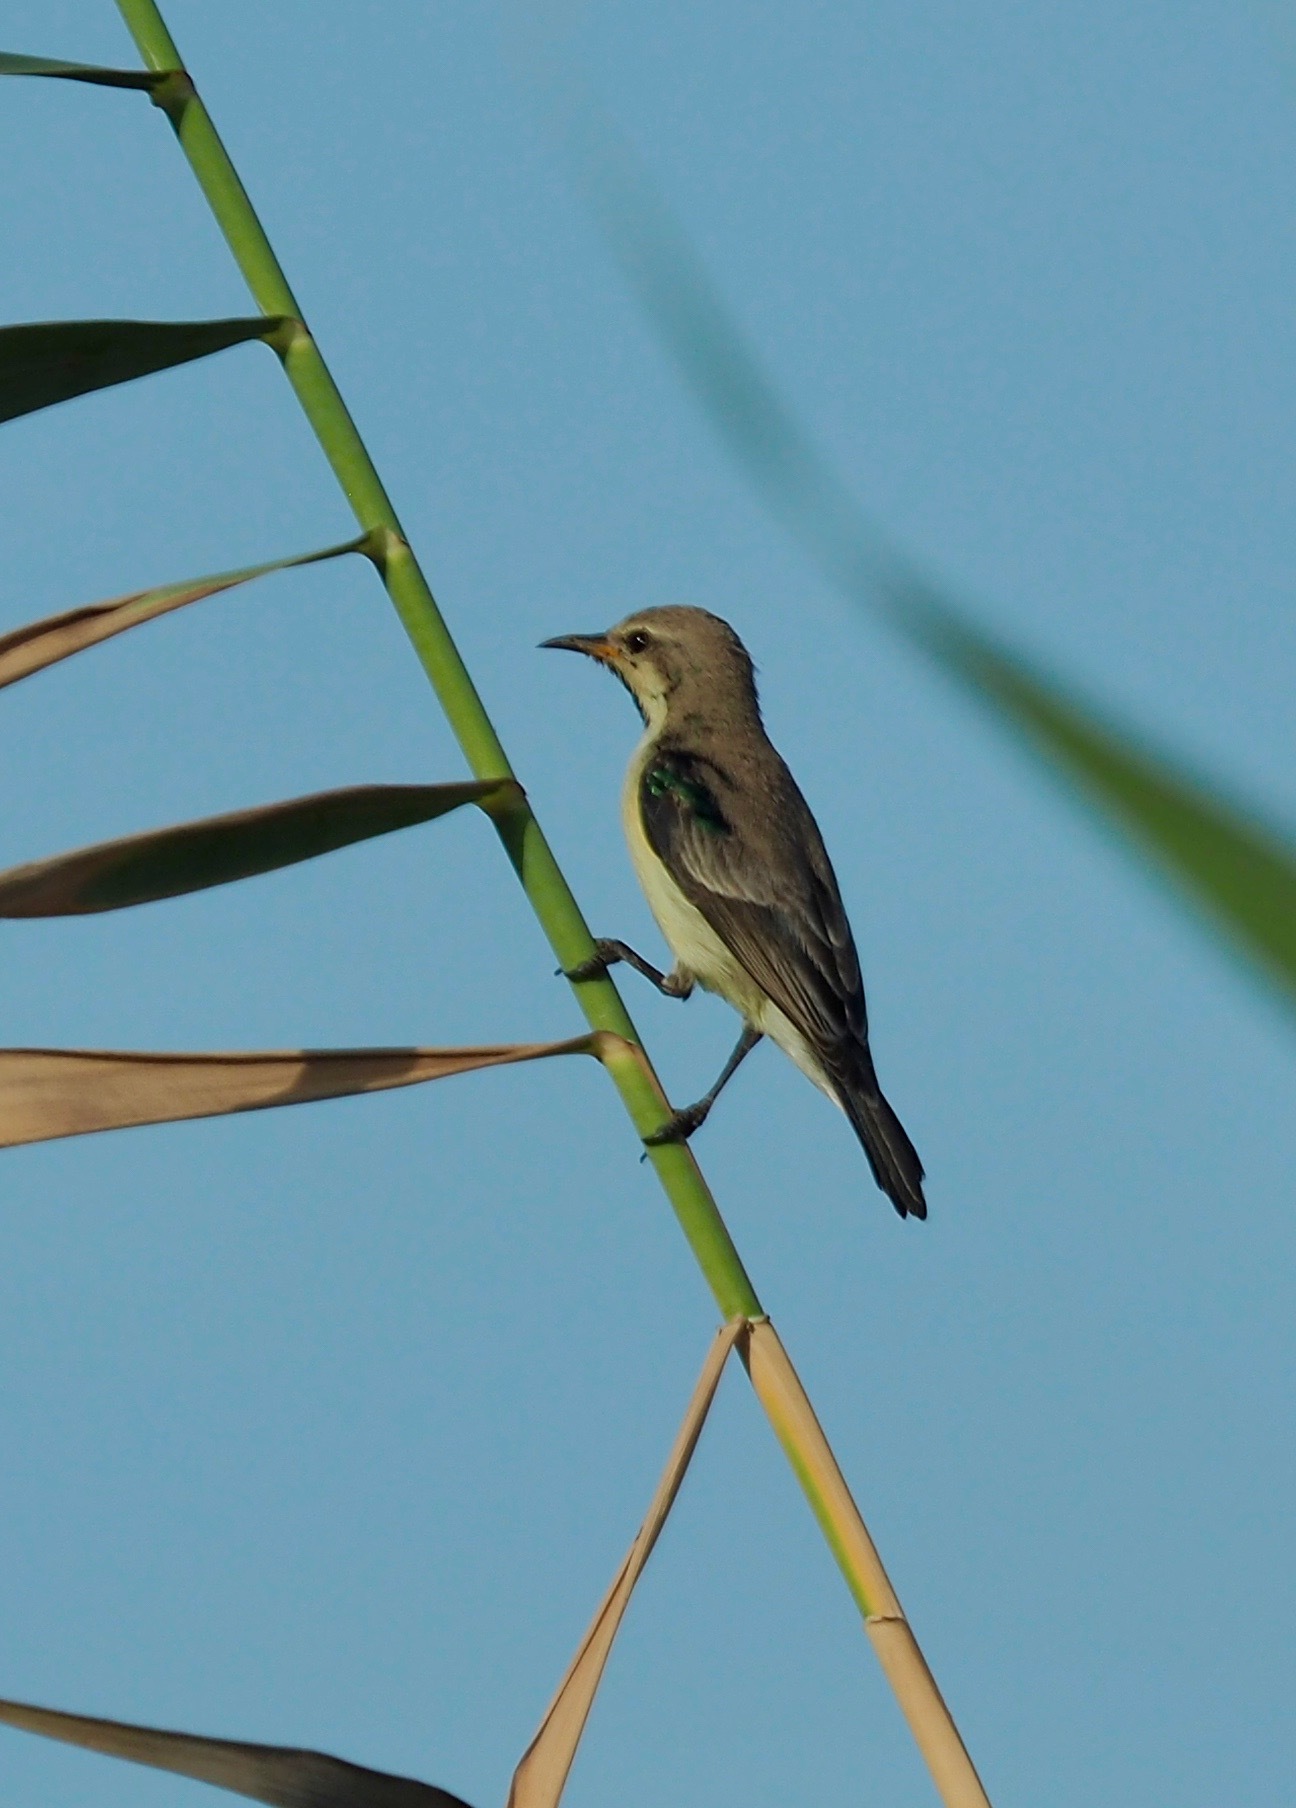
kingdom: Animalia
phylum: Chordata
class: Aves
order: Passeriformes
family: Nectariniidae
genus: Hedydipna
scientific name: Hedydipna metallica
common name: Nile valley sunbird
